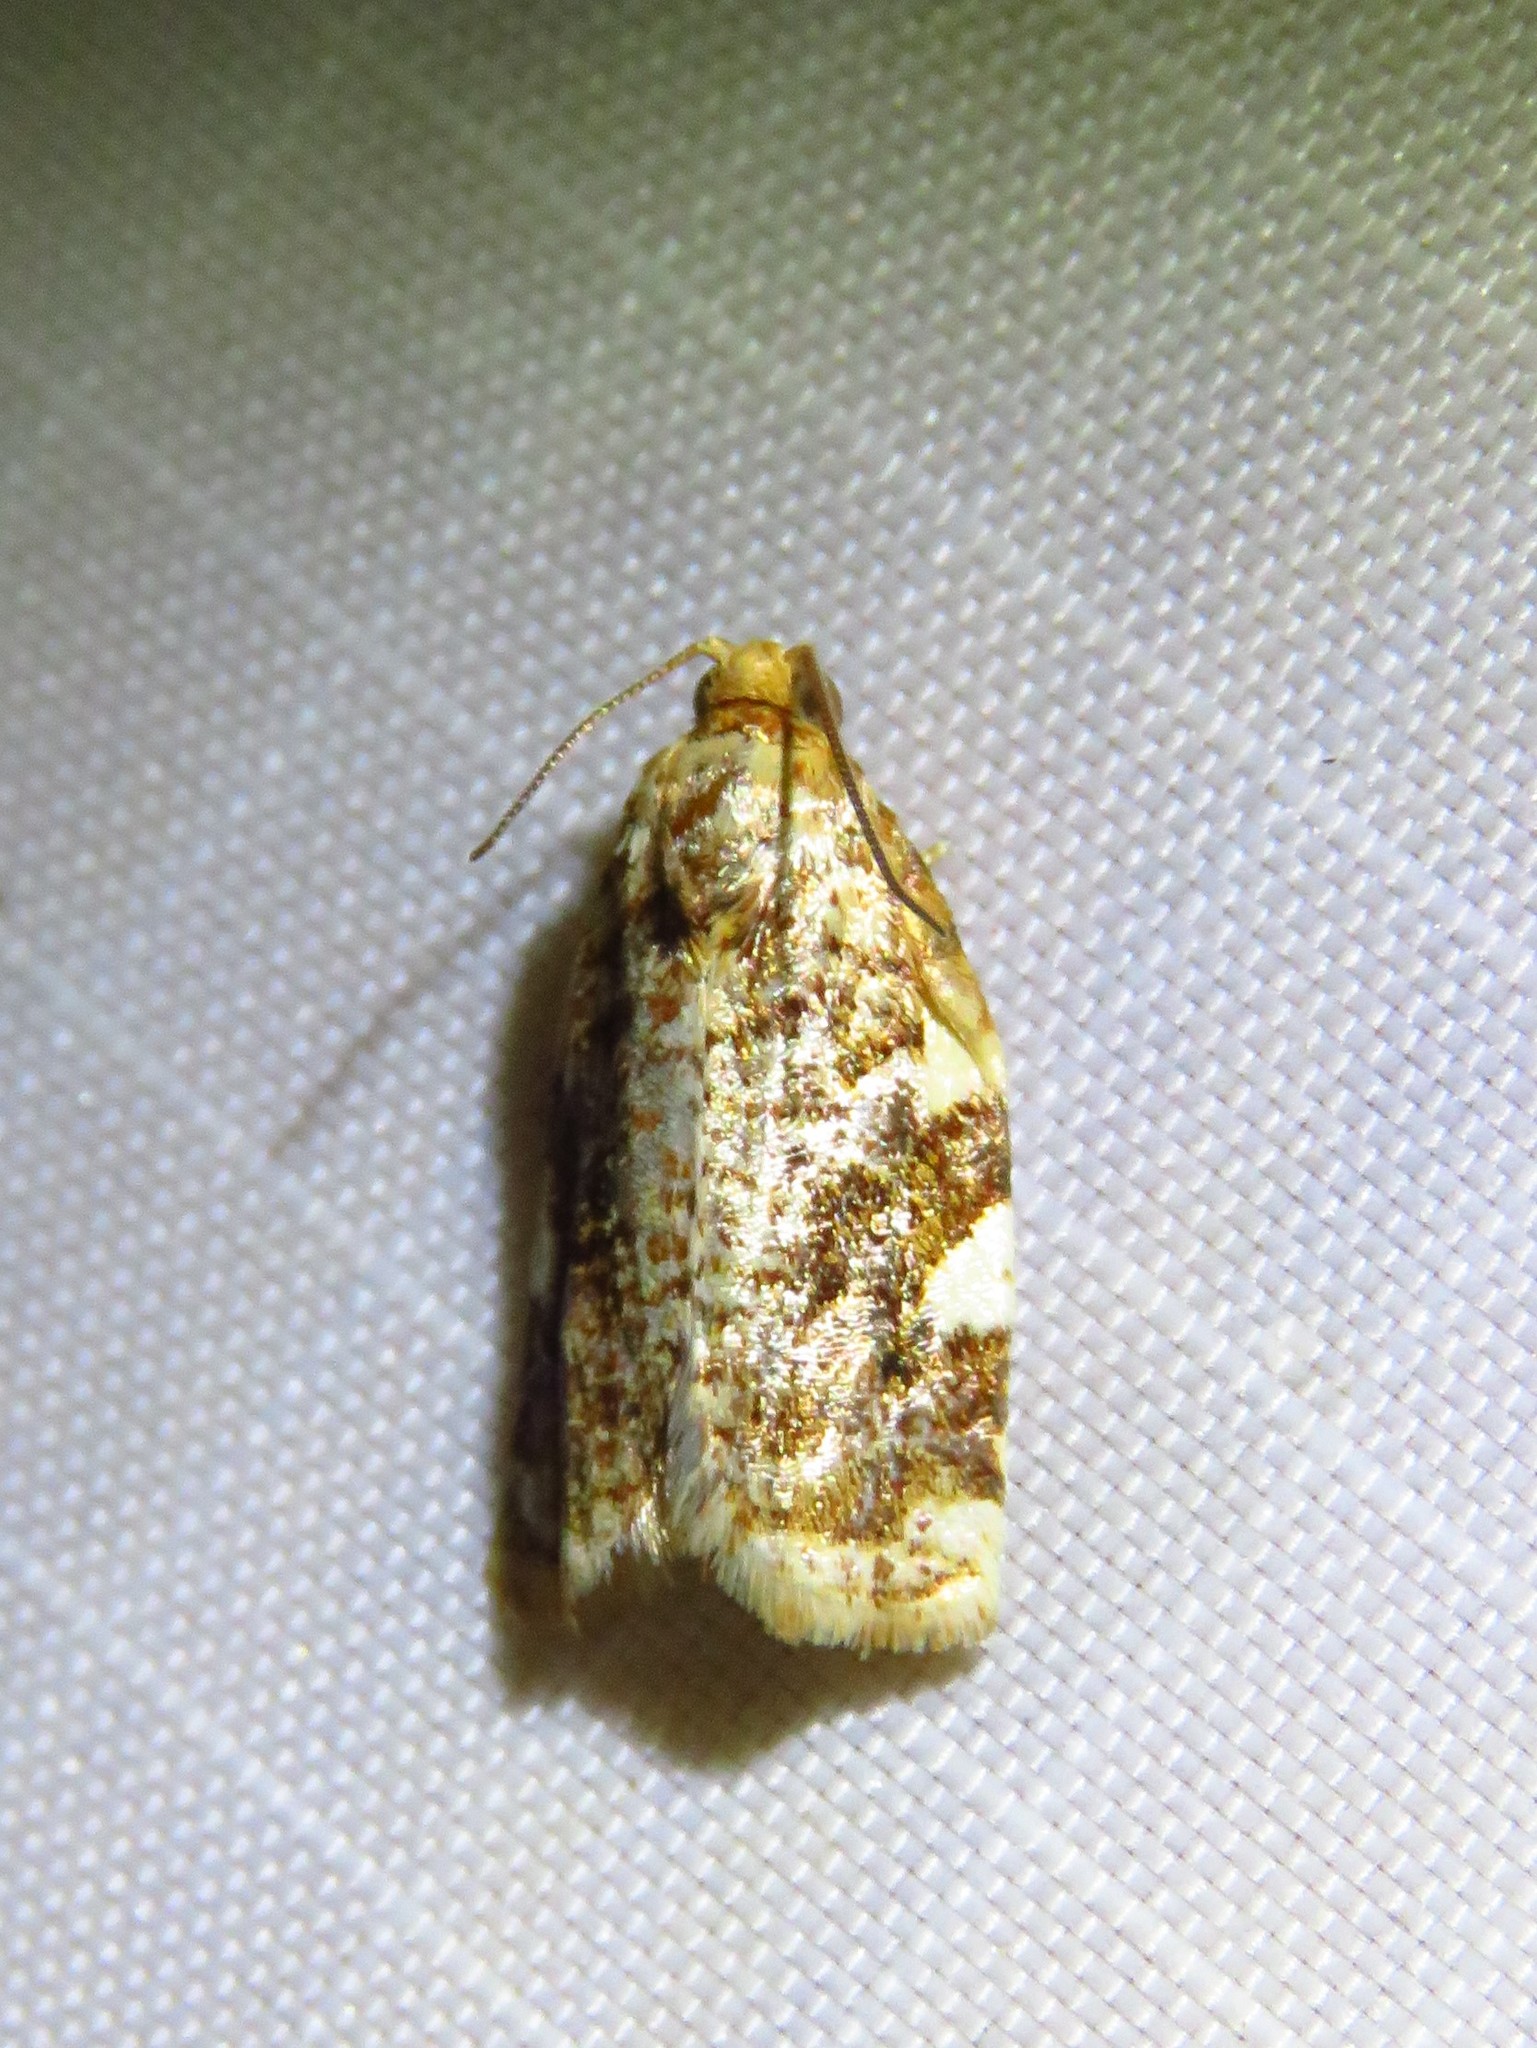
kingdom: Animalia
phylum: Arthropoda
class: Insecta
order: Lepidoptera
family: Tortricidae
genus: Archips
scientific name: Archips argyrospila
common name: Fruit-tree leafroller moth
